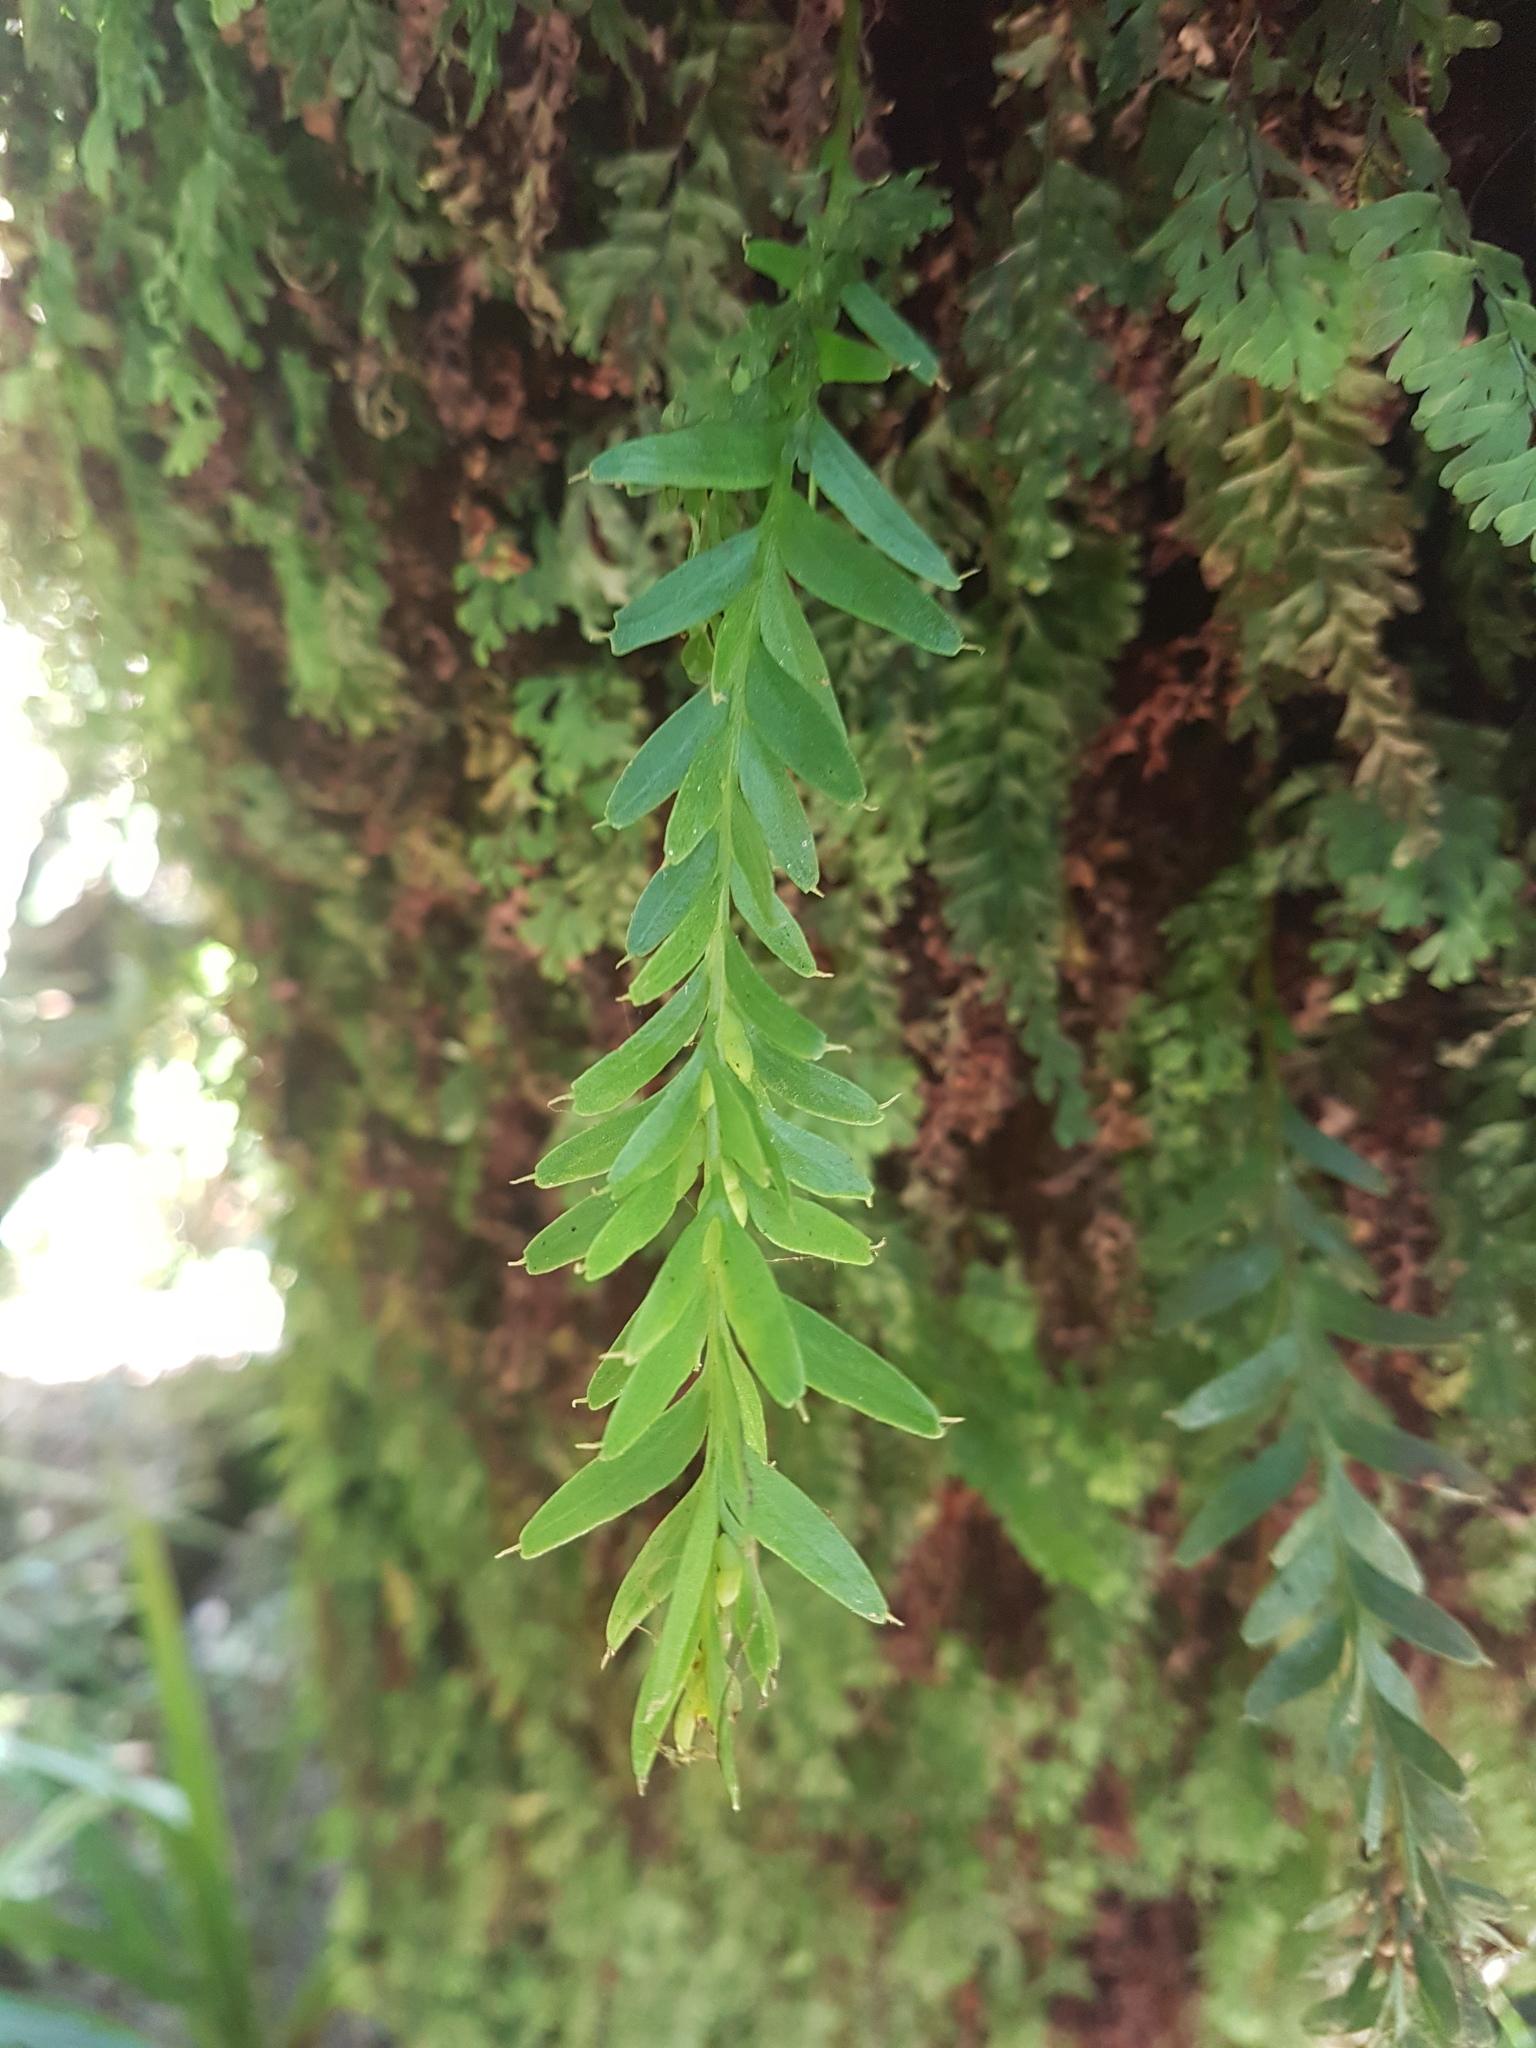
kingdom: Plantae
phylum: Tracheophyta
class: Polypodiopsida
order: Psilotales
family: Psilotaceae
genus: Tmesipteris
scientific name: Tmesipteris tannensis
